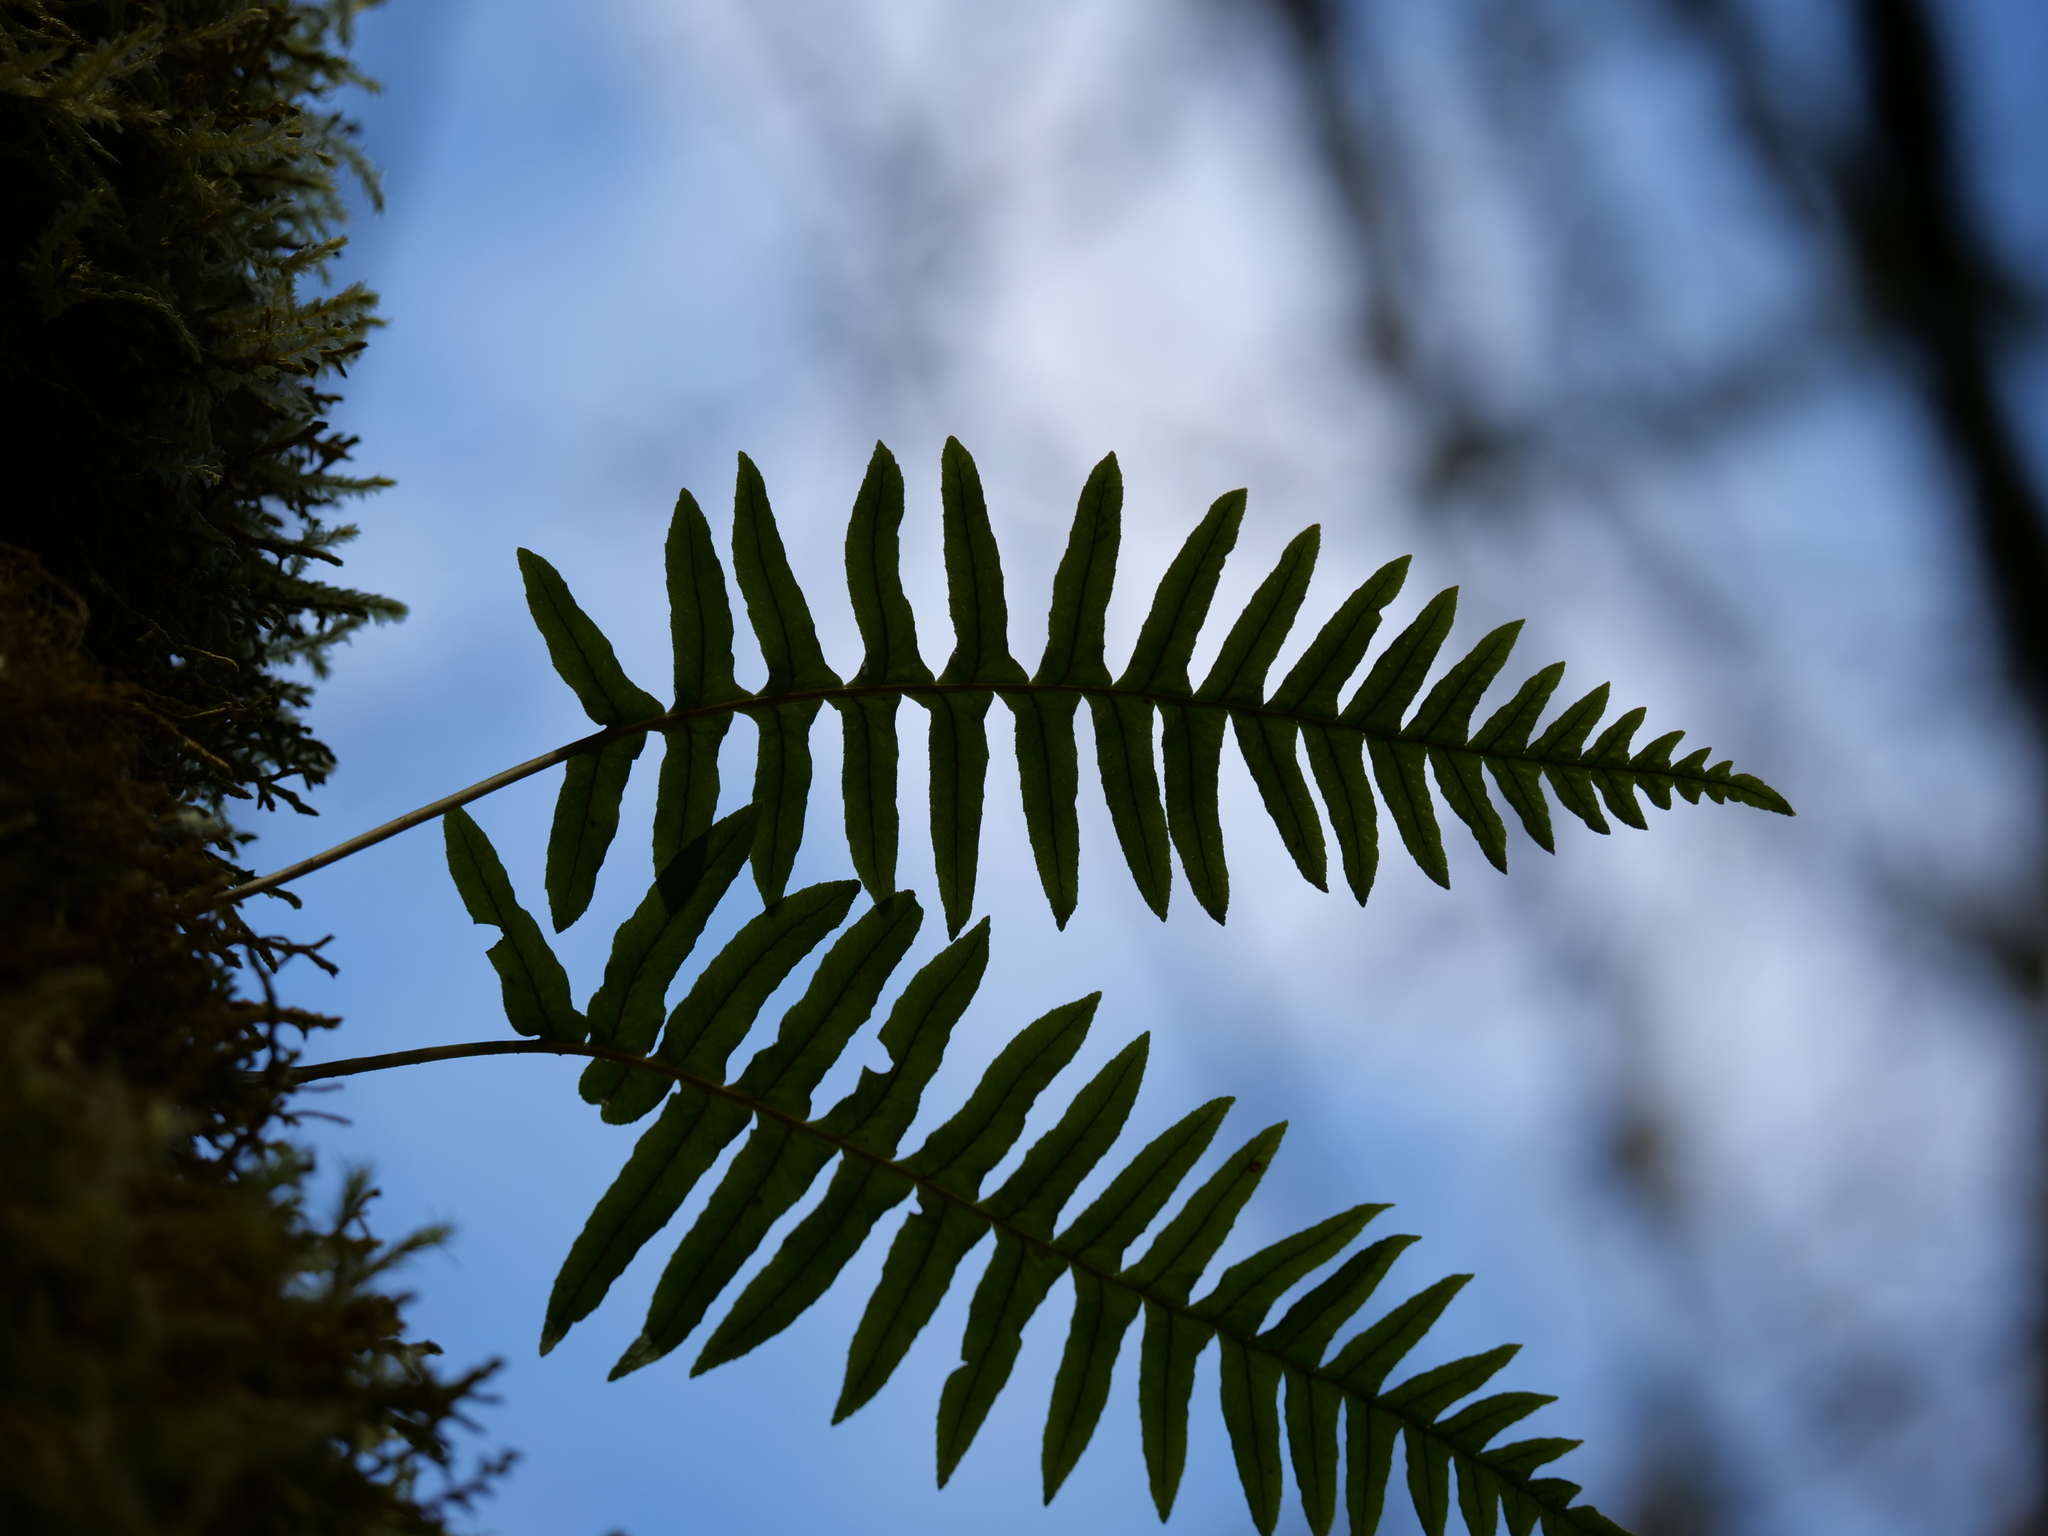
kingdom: Plantae
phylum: Tracheophyta
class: Polypodiopsida
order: Polypodiales
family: Polypodiaceae
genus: Polypodium
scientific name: Polypodium glycyrrhiza
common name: Licorice fern
